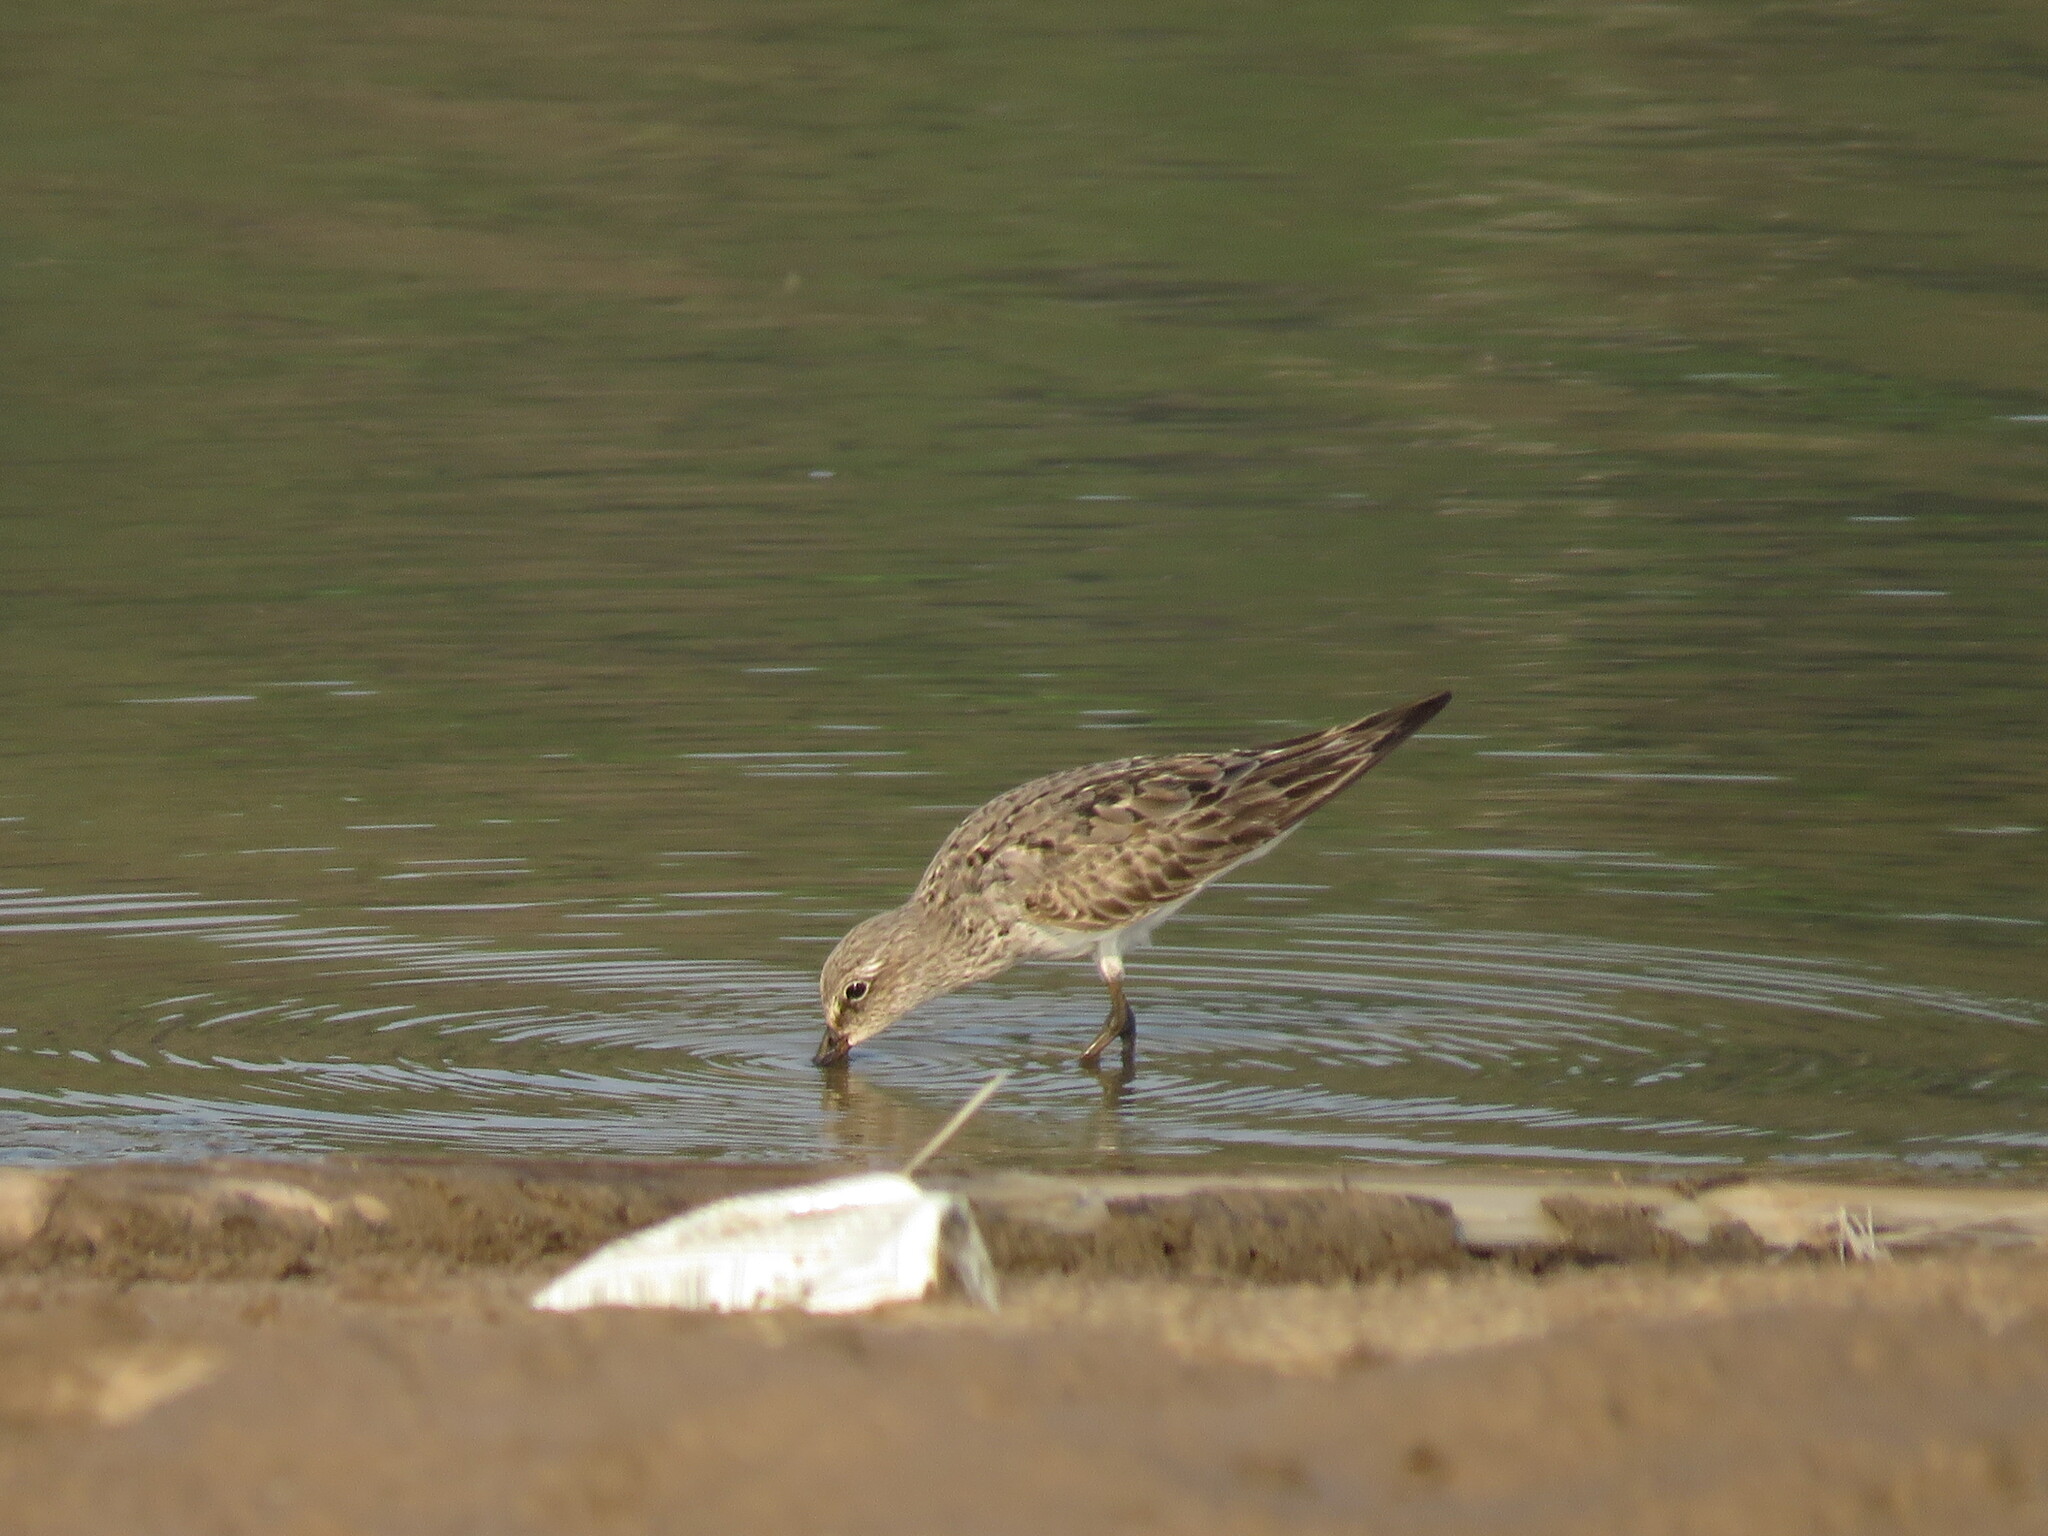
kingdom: Animalia
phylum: Chordata
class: Aves
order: Charadriiformes
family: Scolopacidae
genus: Calidris
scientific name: Calidris fuscicollis
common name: White-rumped sandpiper
